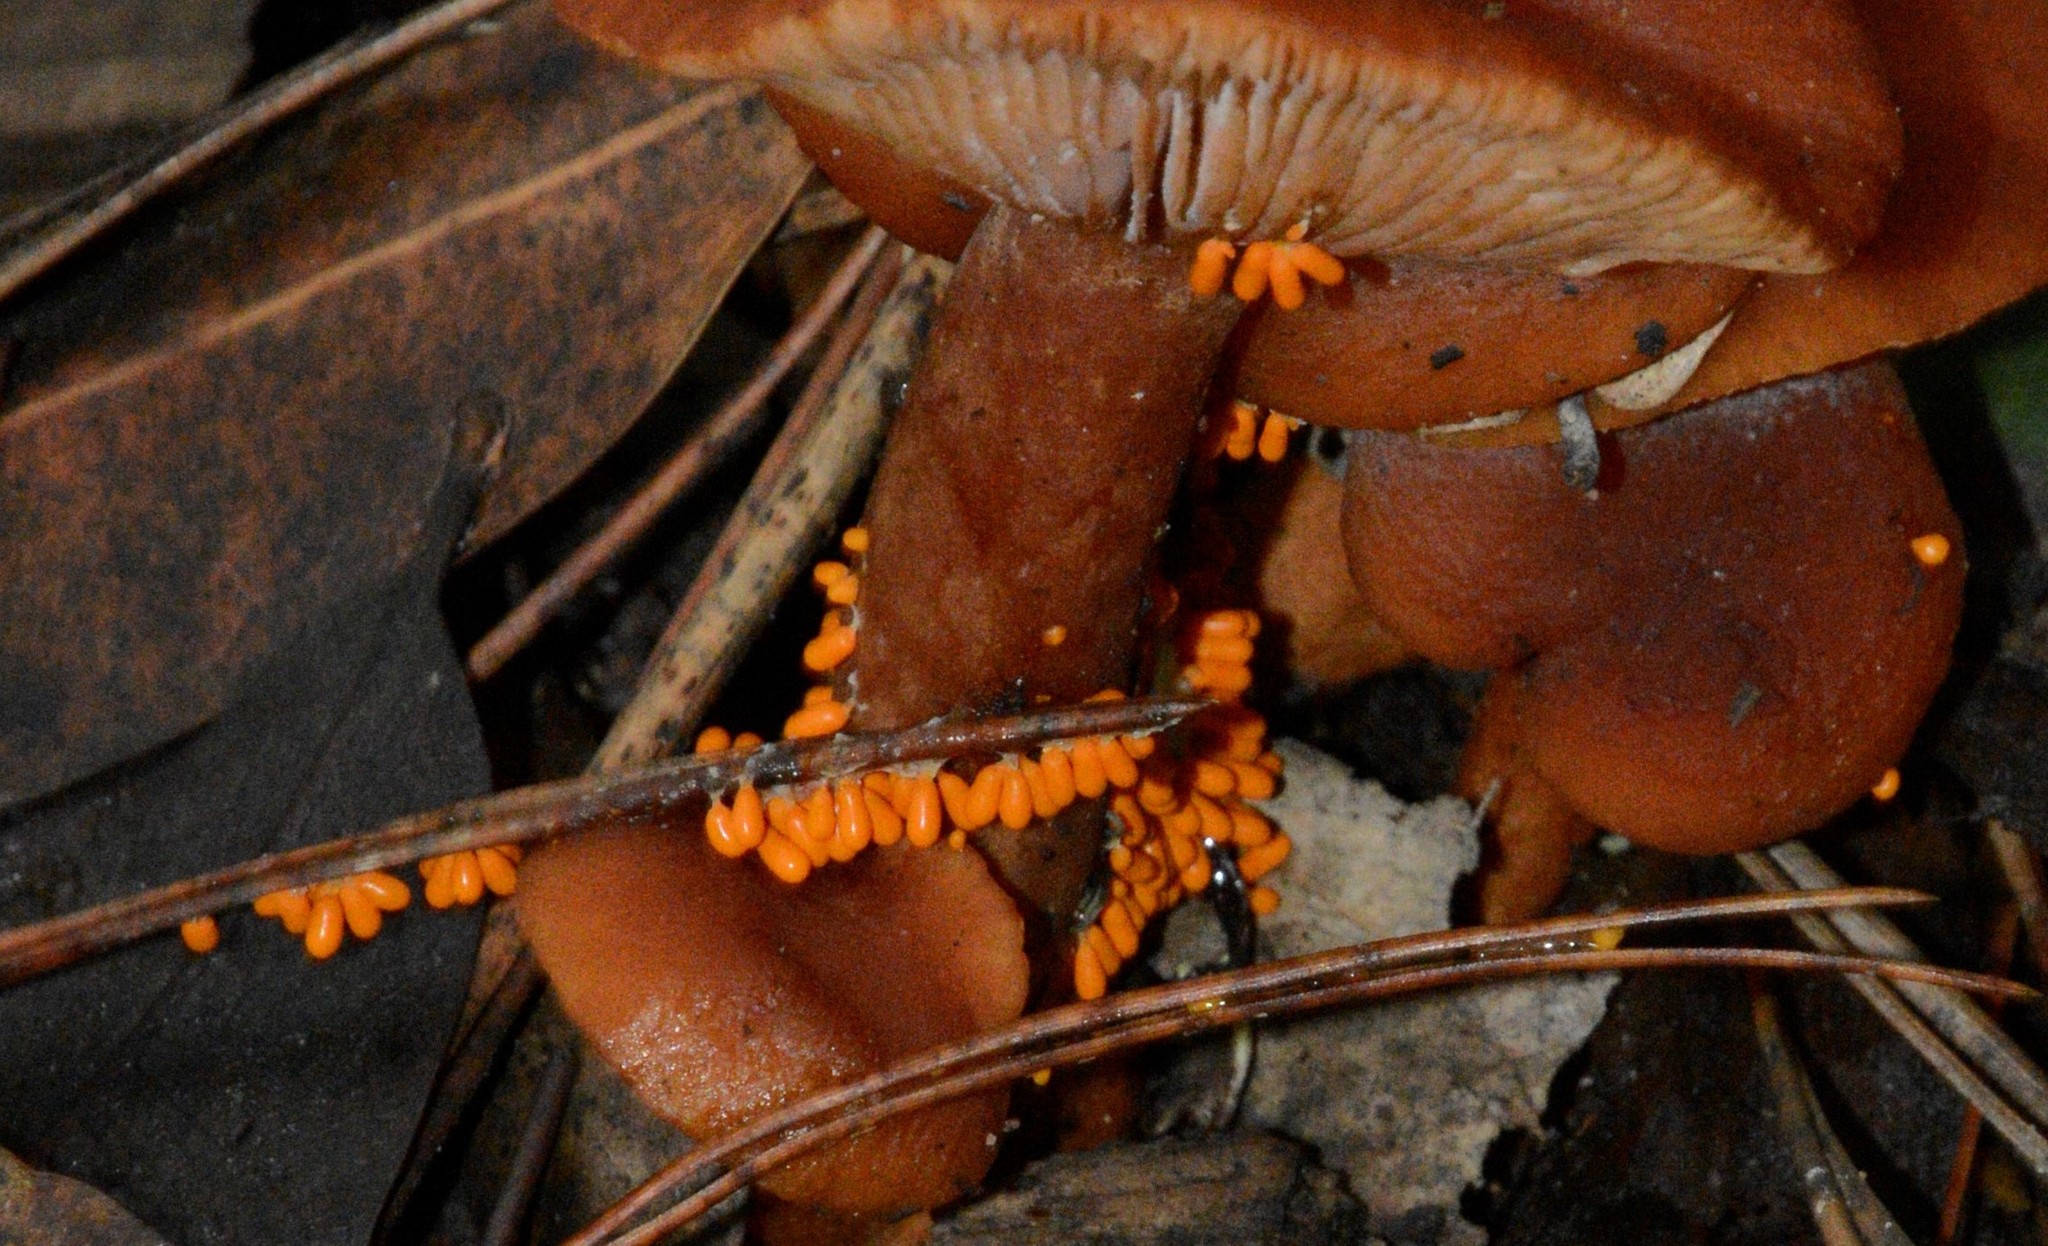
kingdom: Protozoa
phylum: Mycetozoa
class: Myxomycetes
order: Physarales
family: Physaraceae
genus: Leocarpus
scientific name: Leocarpus fragilis
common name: Insect-egg slime
